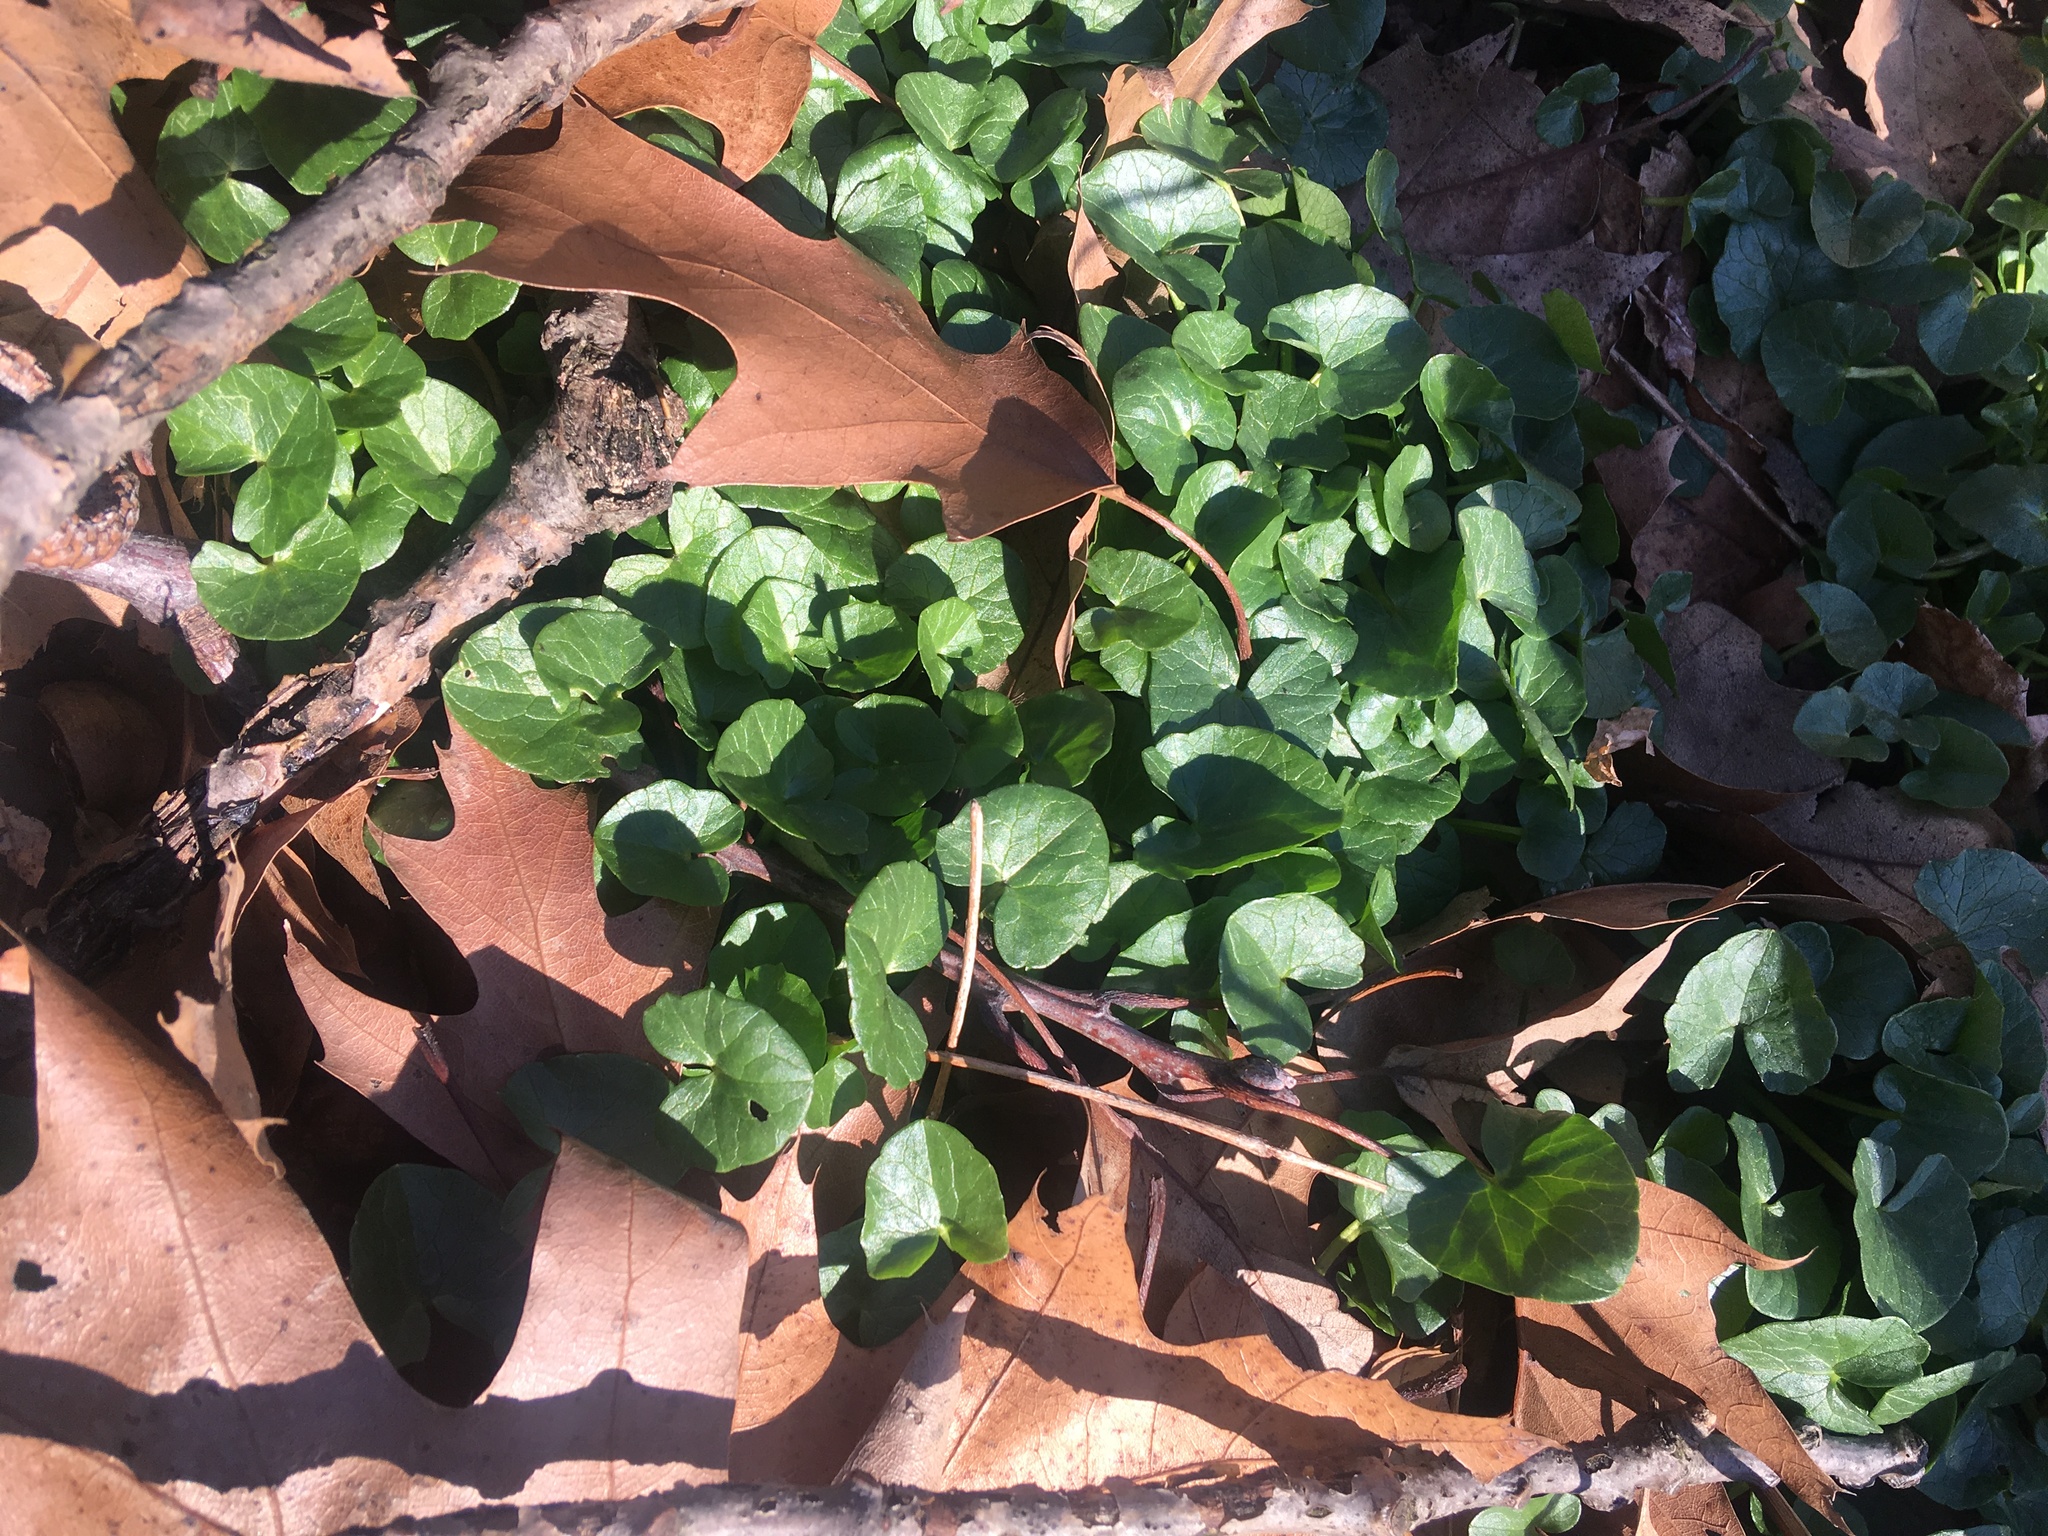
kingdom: Plantae
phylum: Tracheophyta
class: Magnoliopsida
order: Ranunculales
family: Ranunculaceae
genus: Ficaria
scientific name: Ficaria verna
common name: Lesser celandine
